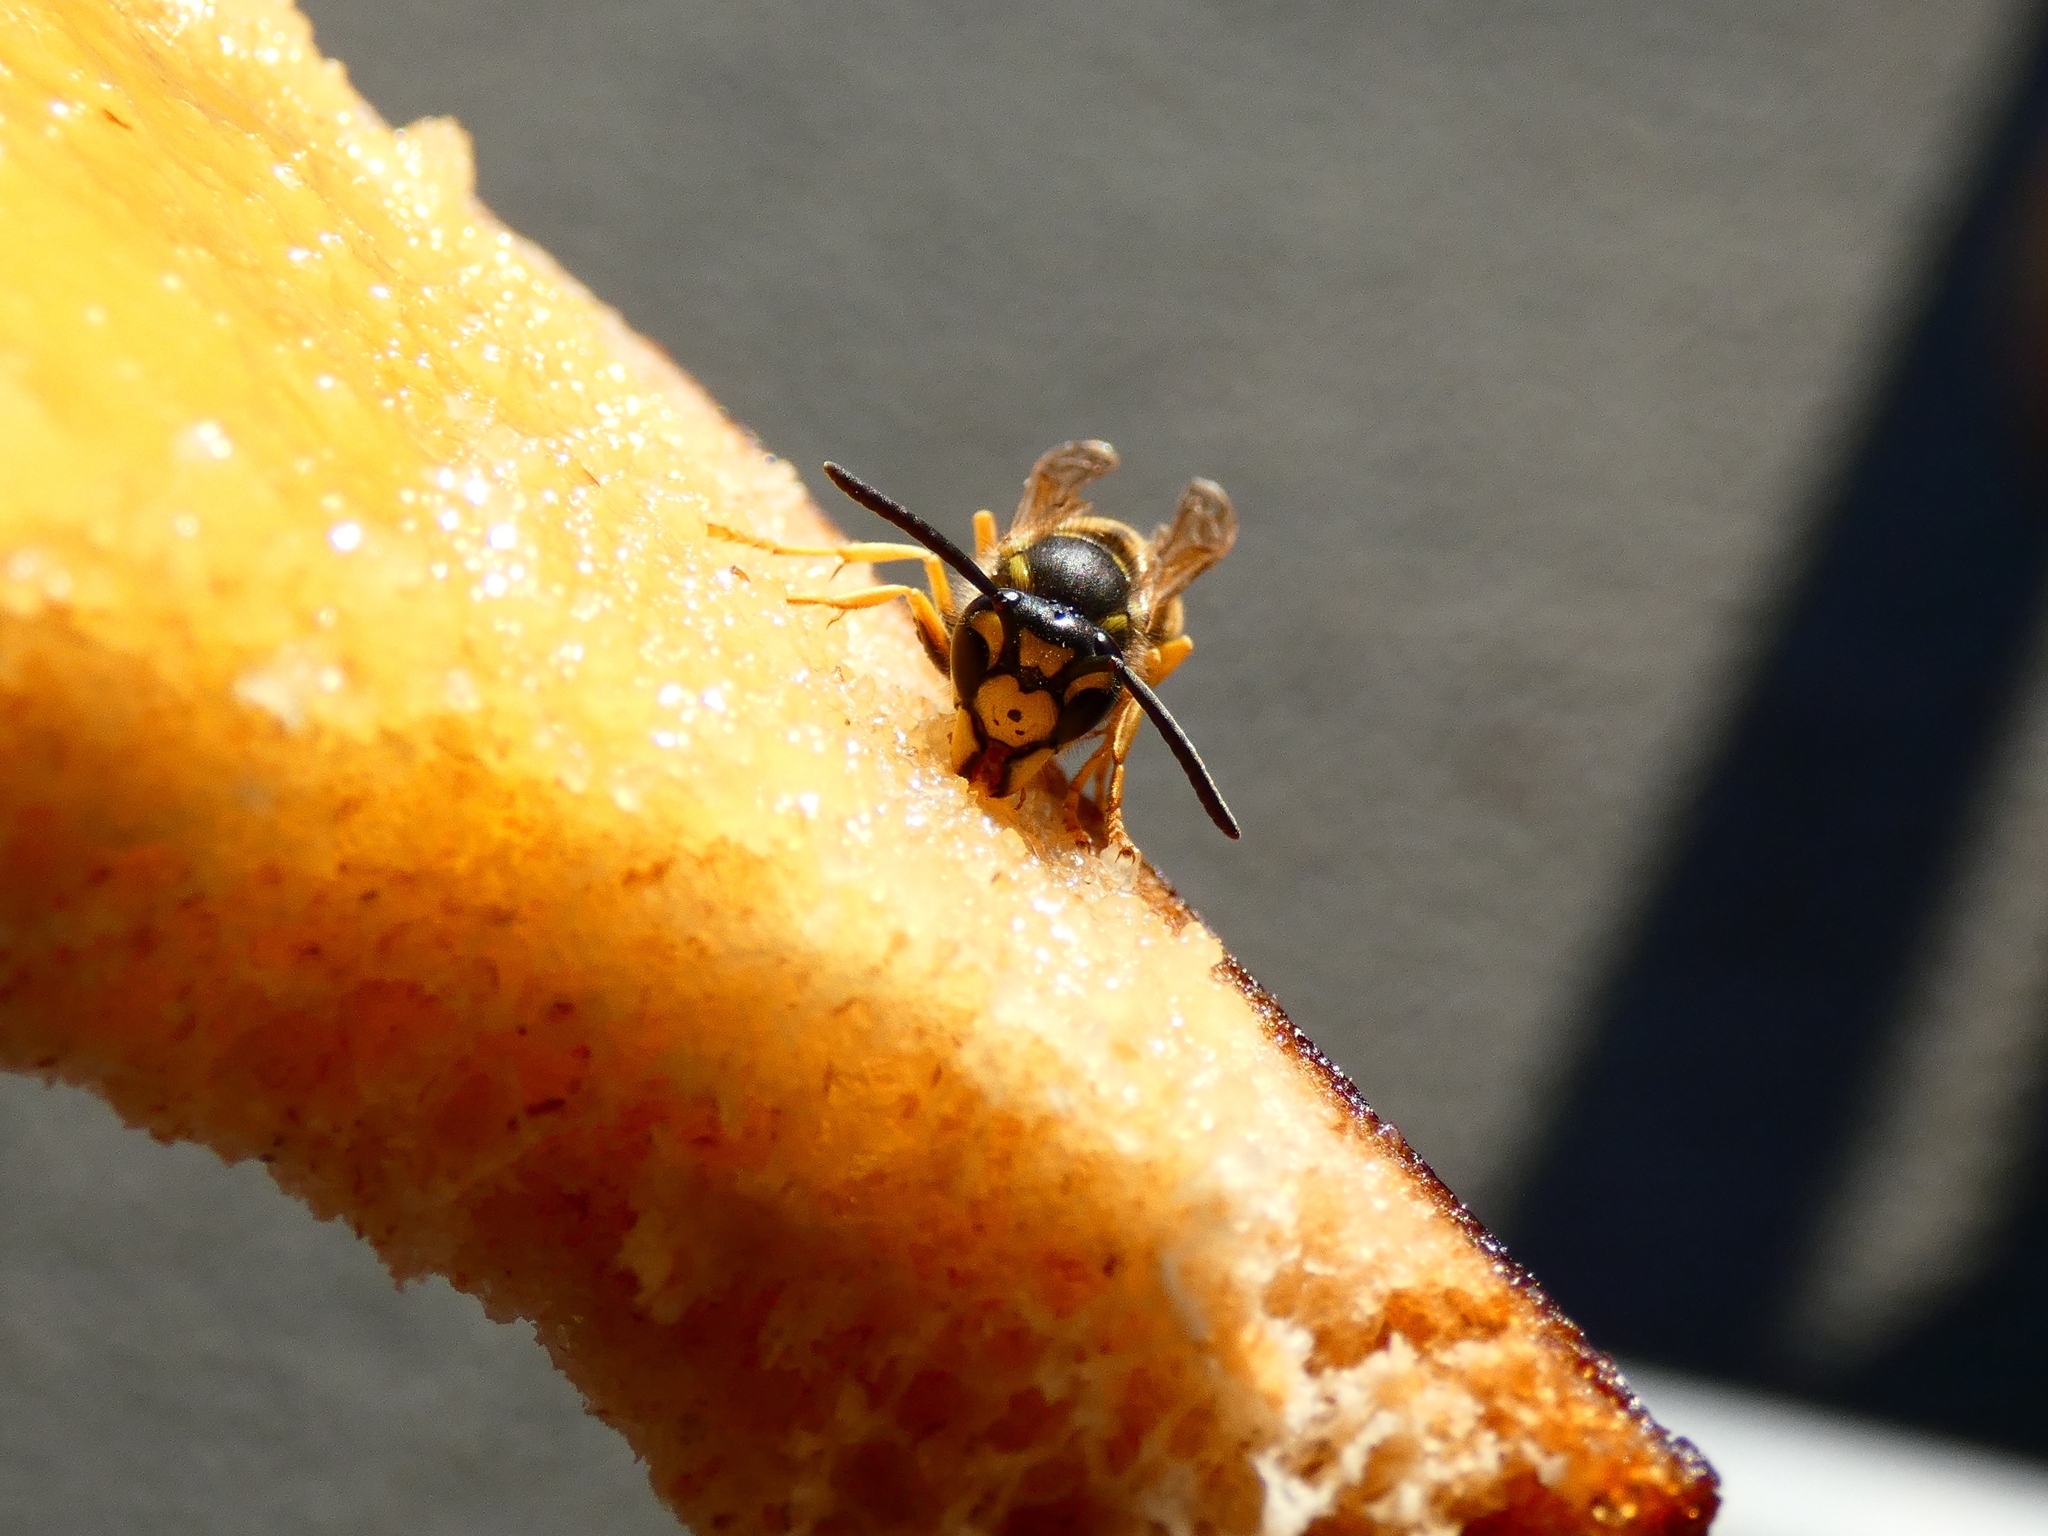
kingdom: Animalia
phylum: Arthropoda
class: Insecta
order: Hymenoptera
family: Vespidae
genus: Vespula
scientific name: Vespula germanica
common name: German wasp
